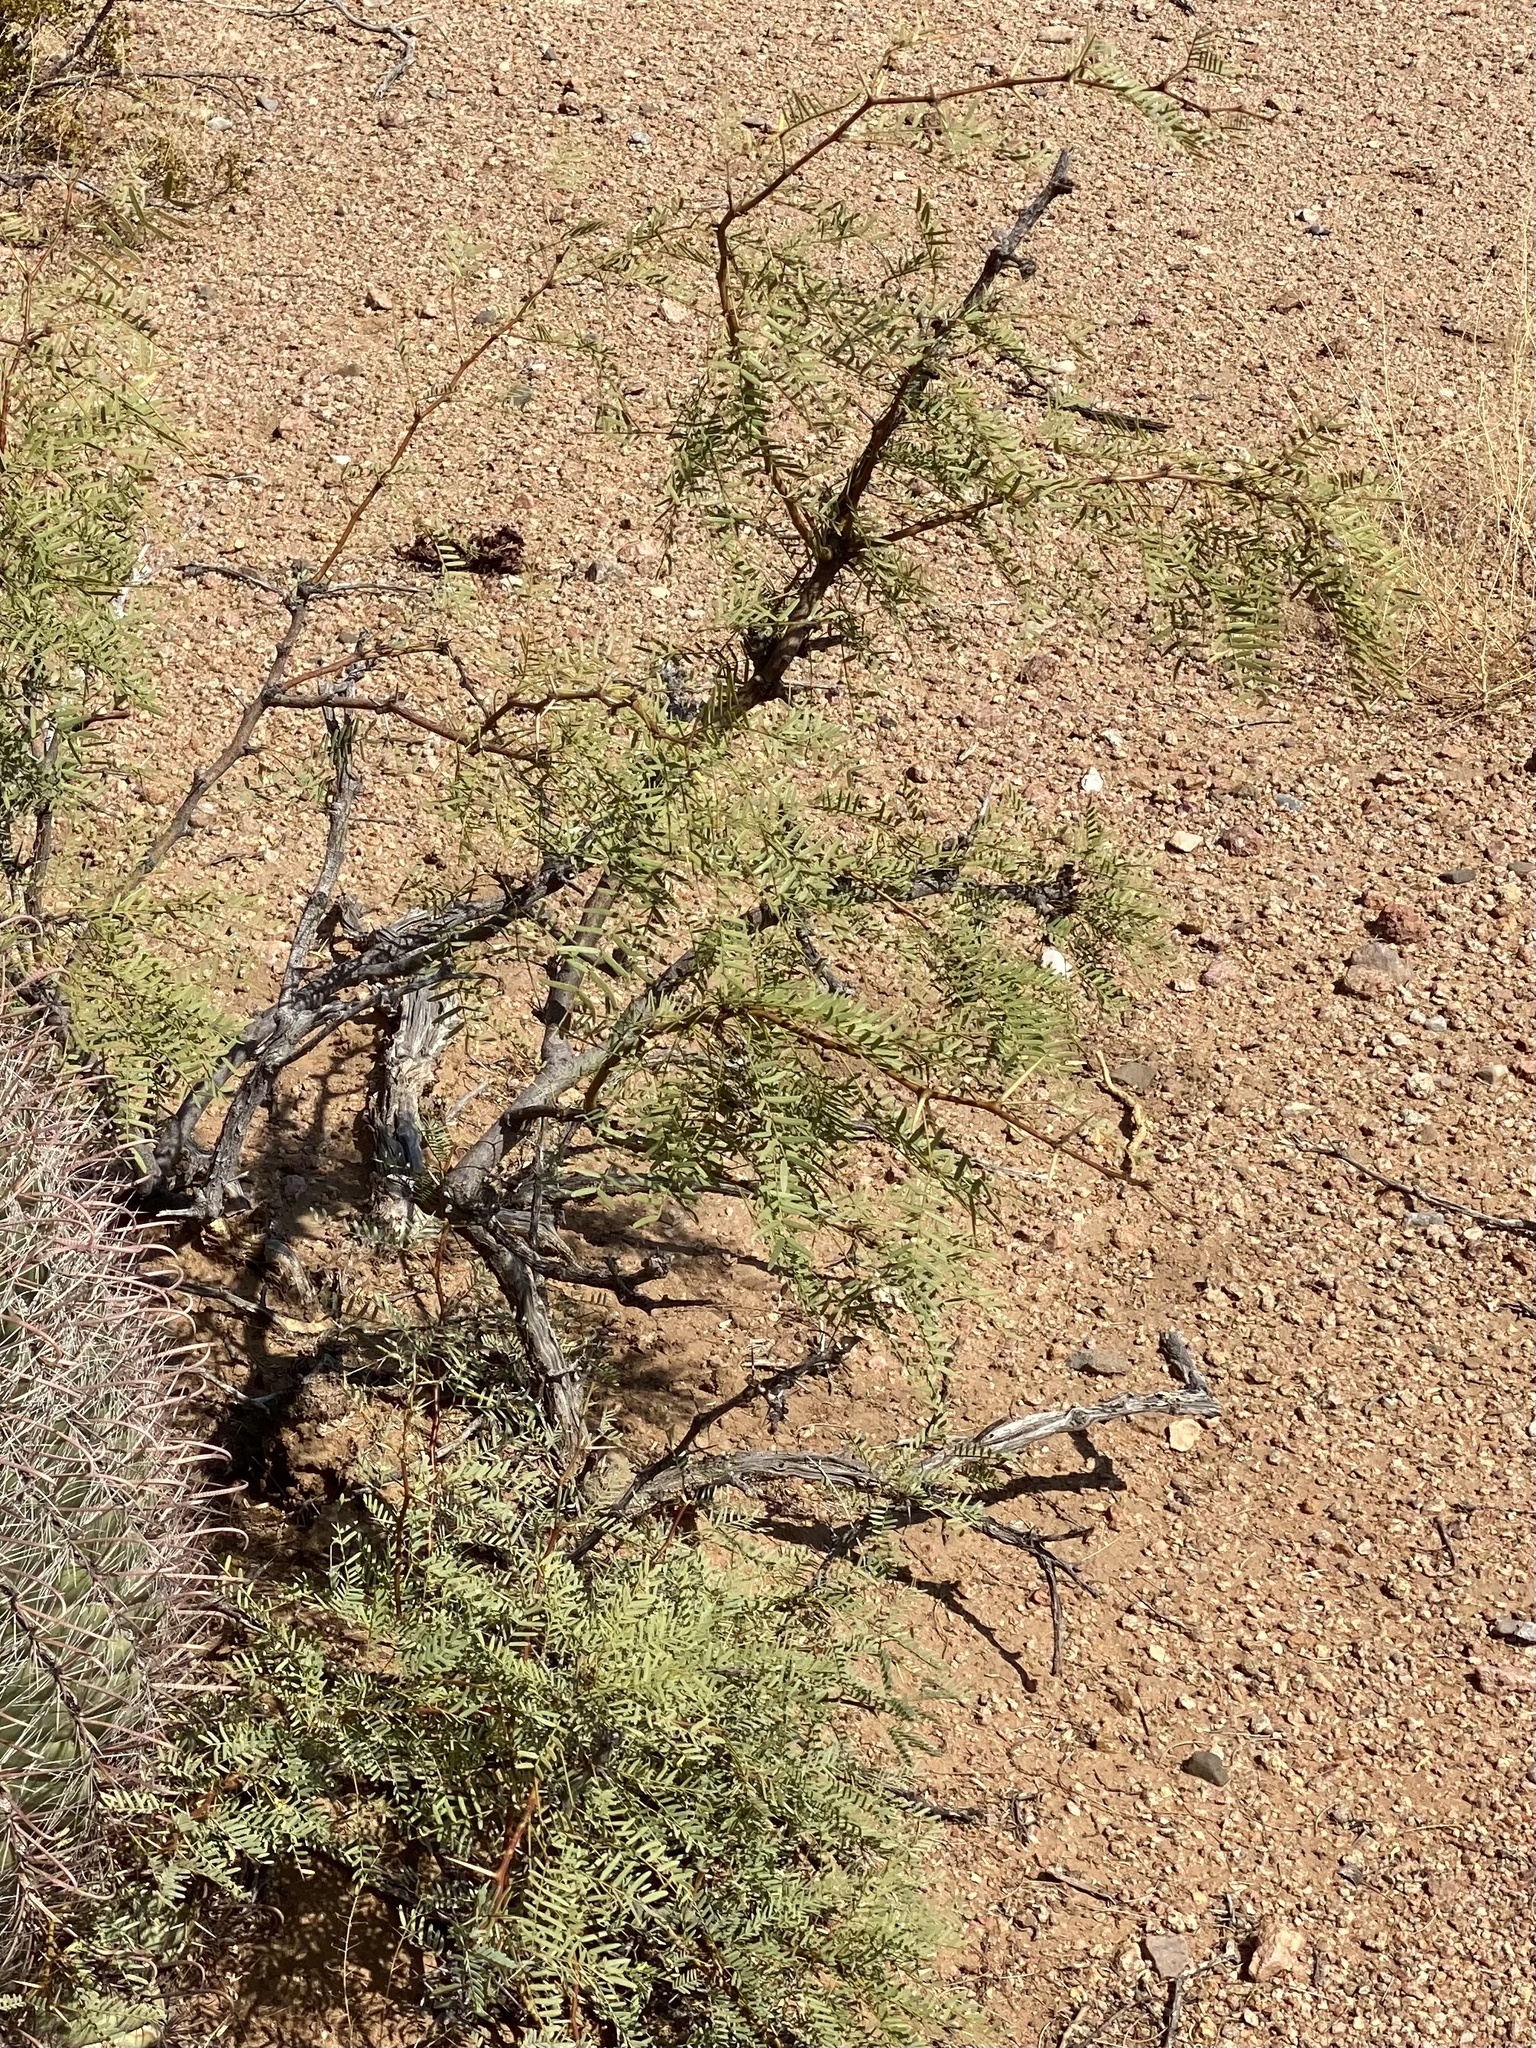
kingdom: Plantae
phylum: Tracheophyta
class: Magnoliopsida
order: Fabales
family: Fabaceae
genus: Prosopis
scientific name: Prosopis glandulosa
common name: Honey mesquite
